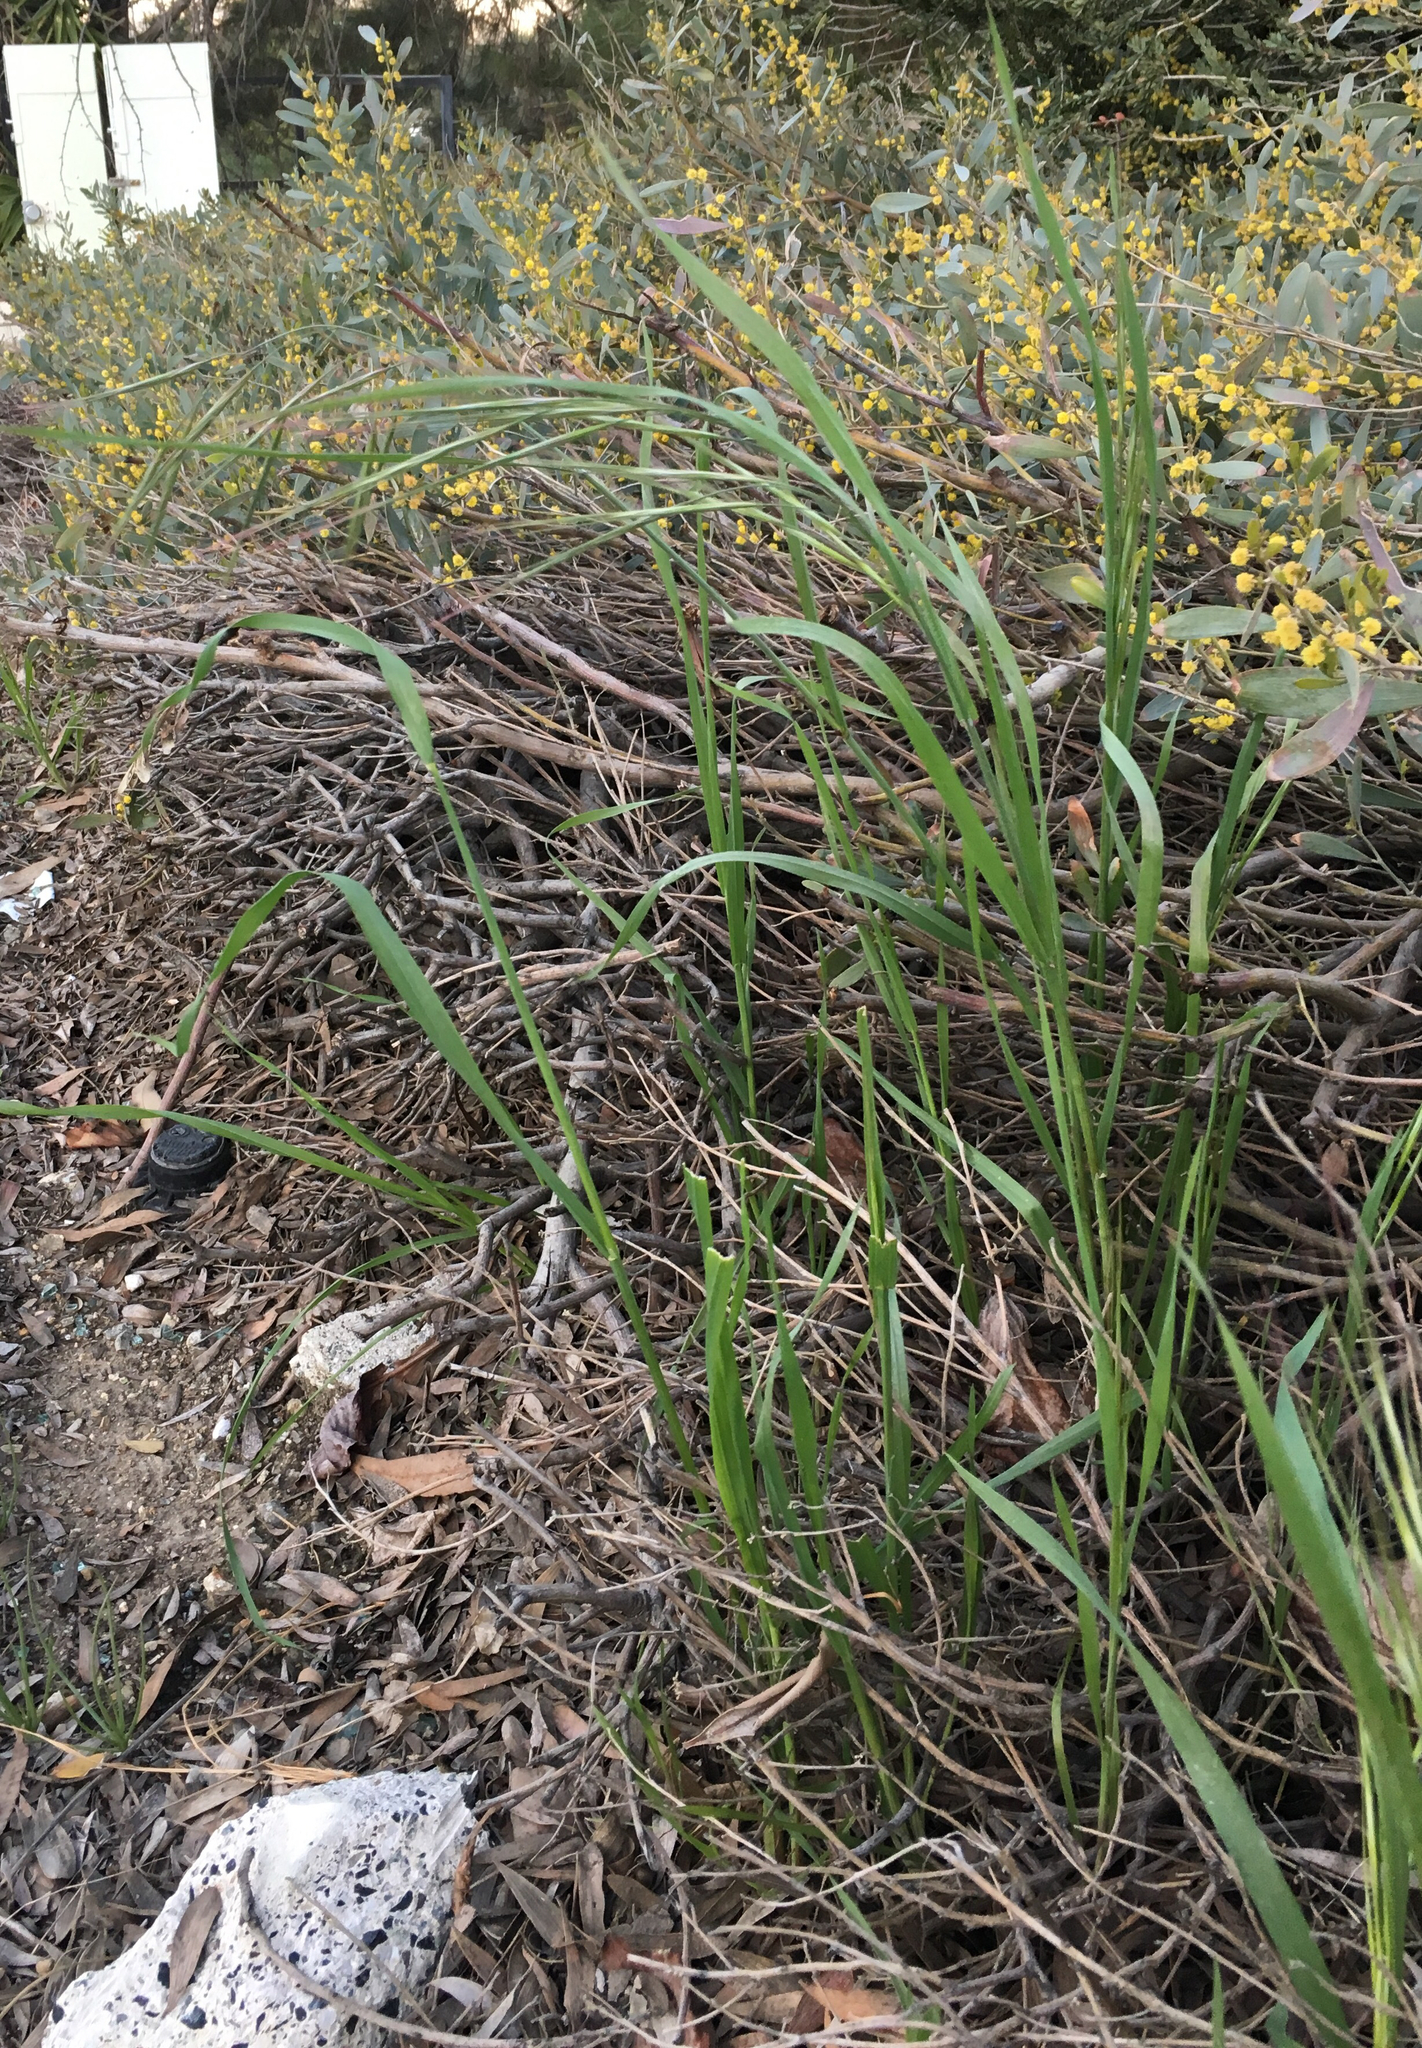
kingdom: Plantae
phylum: Tracheophyta
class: Liliopsida
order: Poales
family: Poaceae
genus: Bromus
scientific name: Bromus diandrus
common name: Ripgut brome
